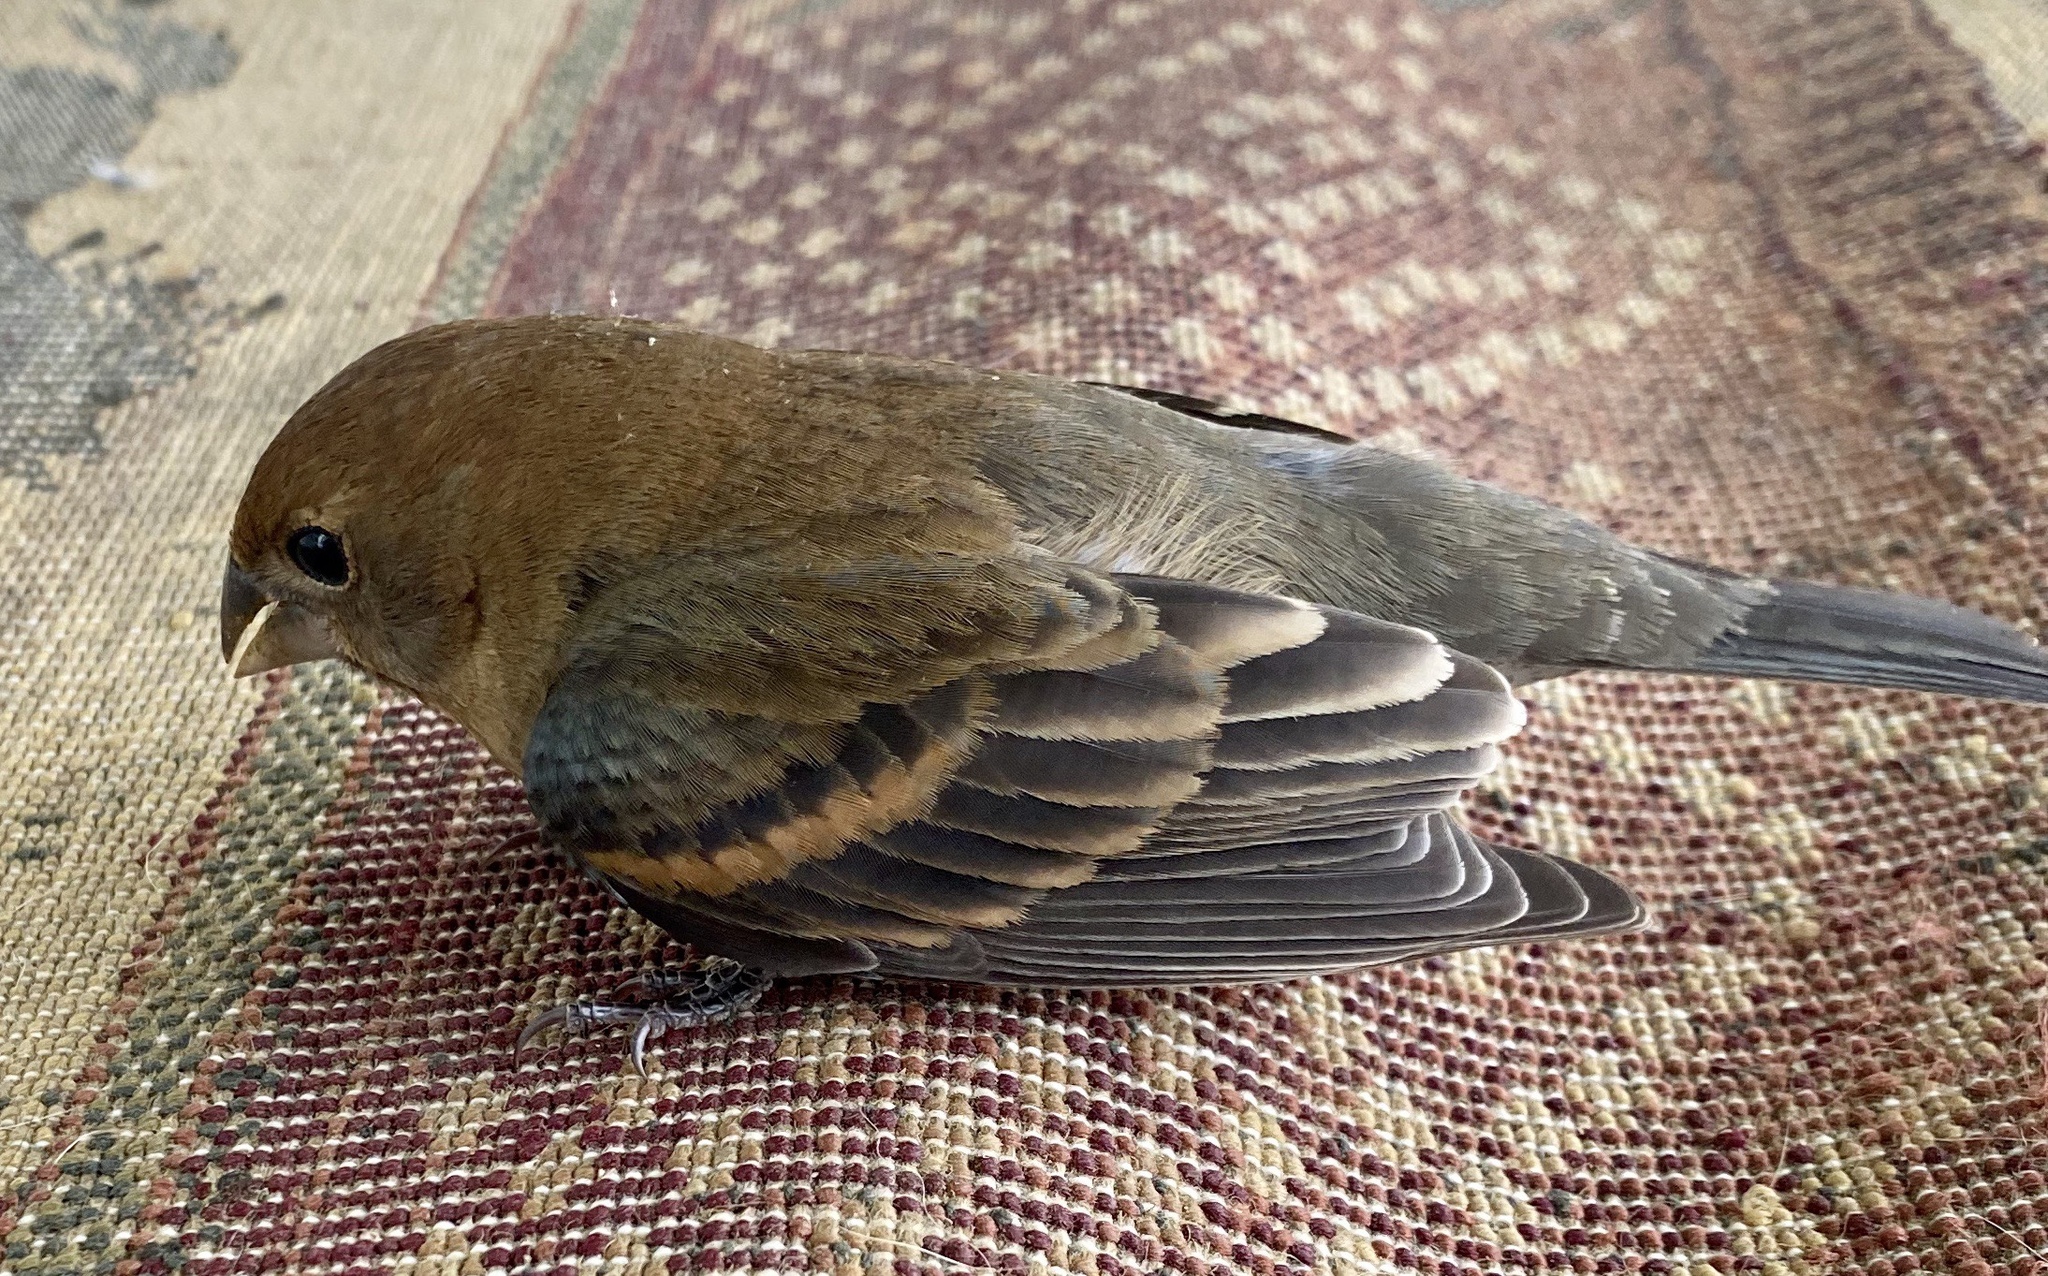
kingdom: Animalia
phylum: Chordata
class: Aves
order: Passeriformes
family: Cardinalidae
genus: Passerina
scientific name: Passerina cyanea
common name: Indigo bunting
